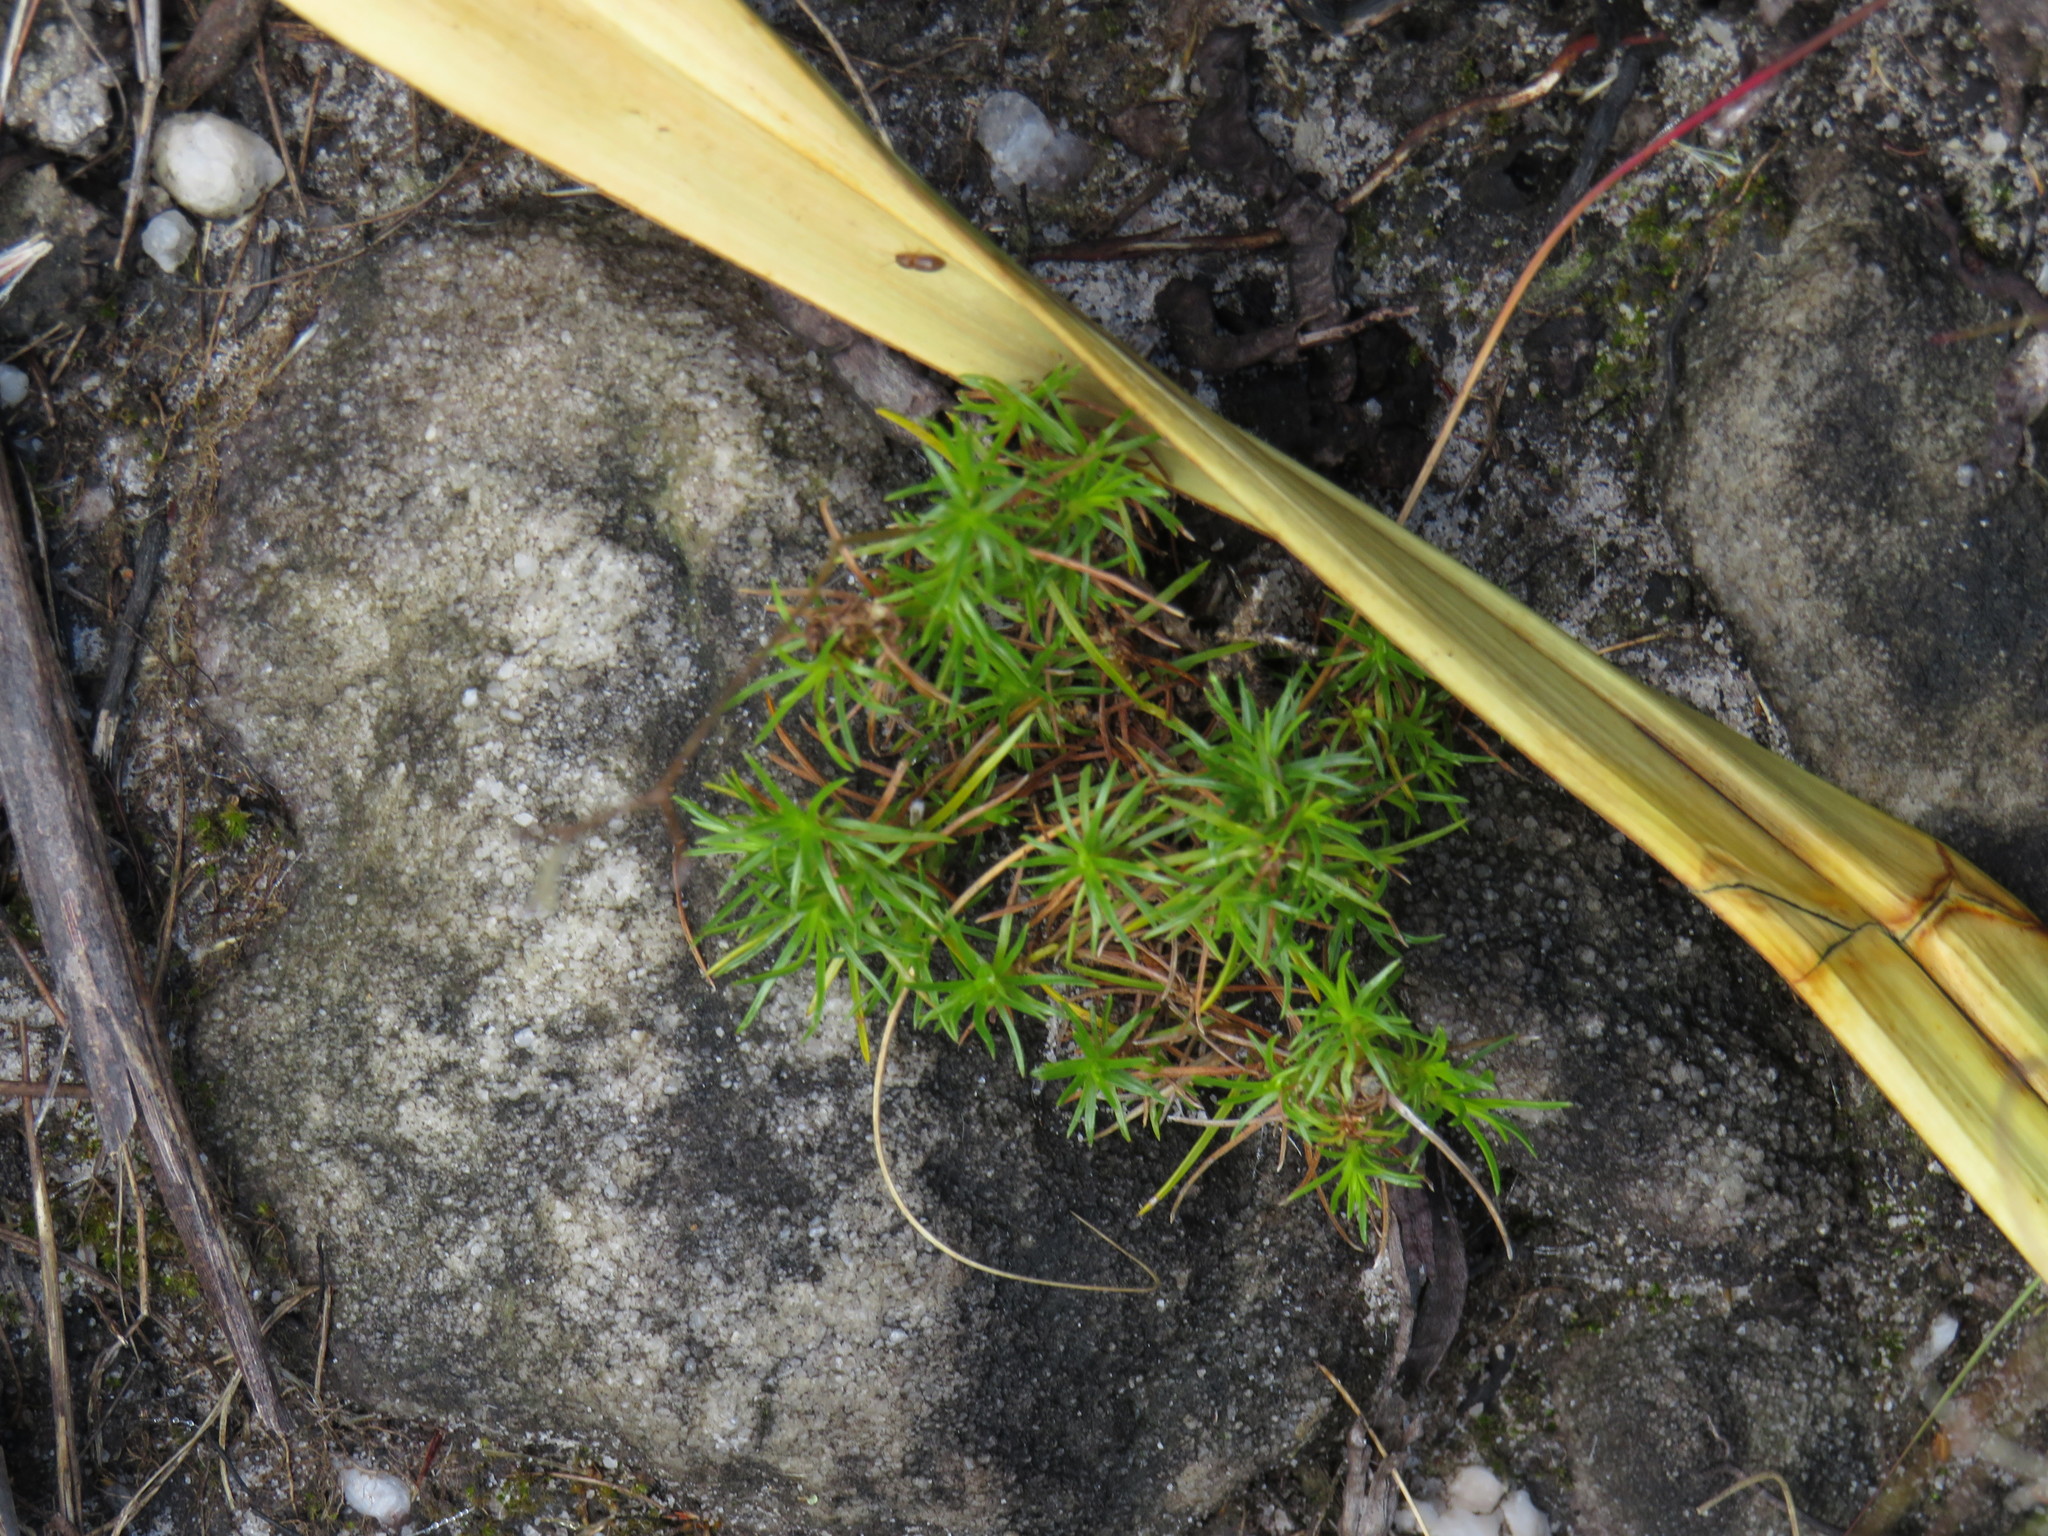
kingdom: Plantae
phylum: Tracheophyta
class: Liliopsida
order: Poales
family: Cyperaceae
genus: Ficinia
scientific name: Ficinia ramosissima
